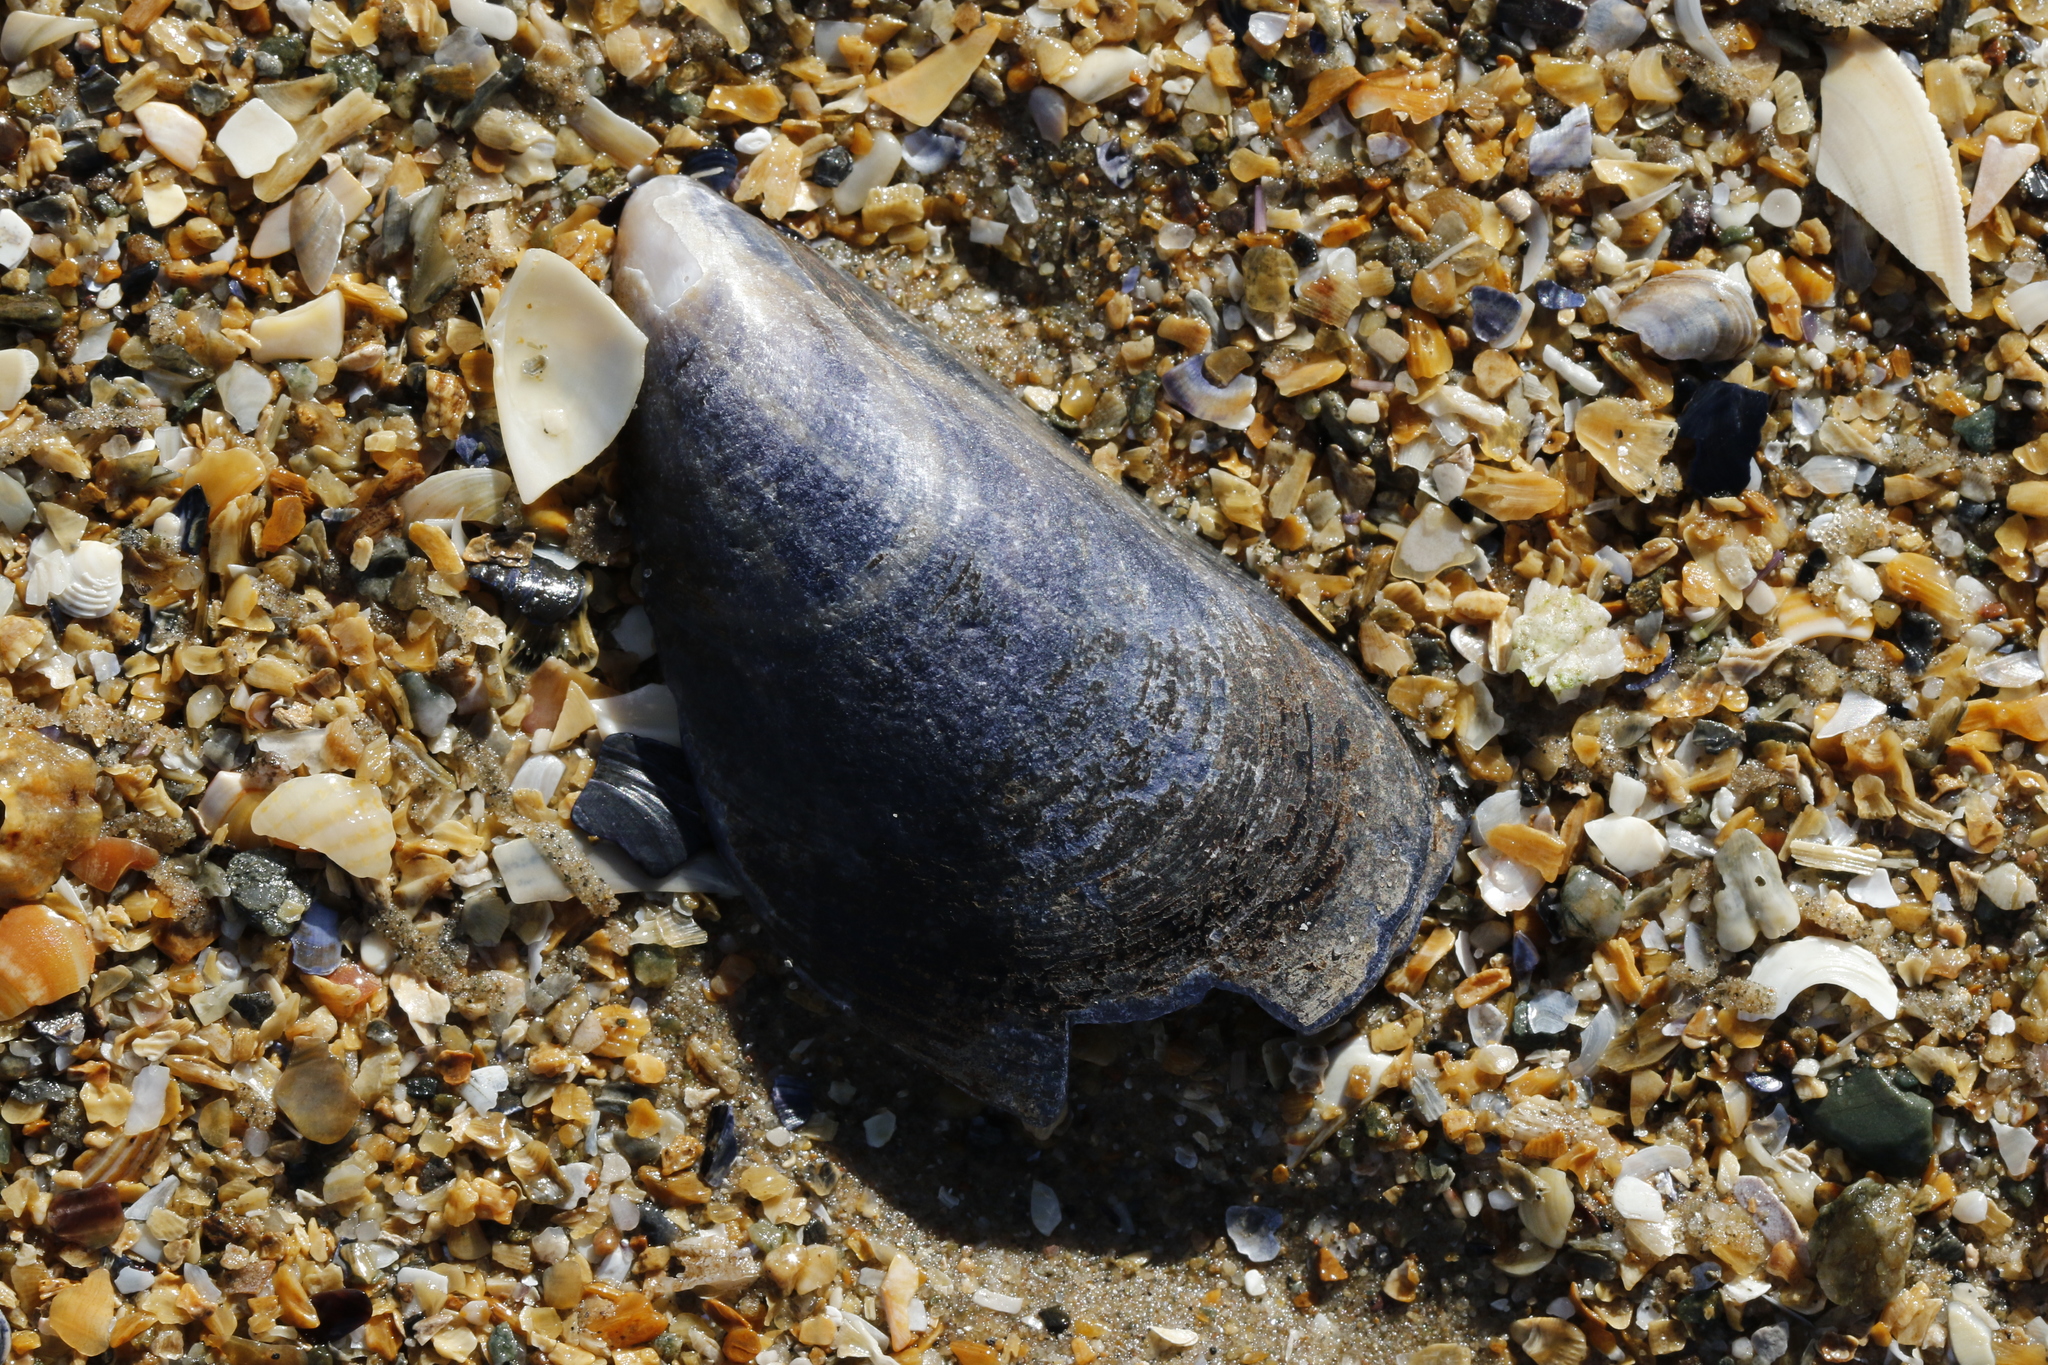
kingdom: Animalia
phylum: Mollusca
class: Bivalvia
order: Mytilida
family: Mytilidae
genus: Mytilus
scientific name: Mytilus edulis
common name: Blue mussel
